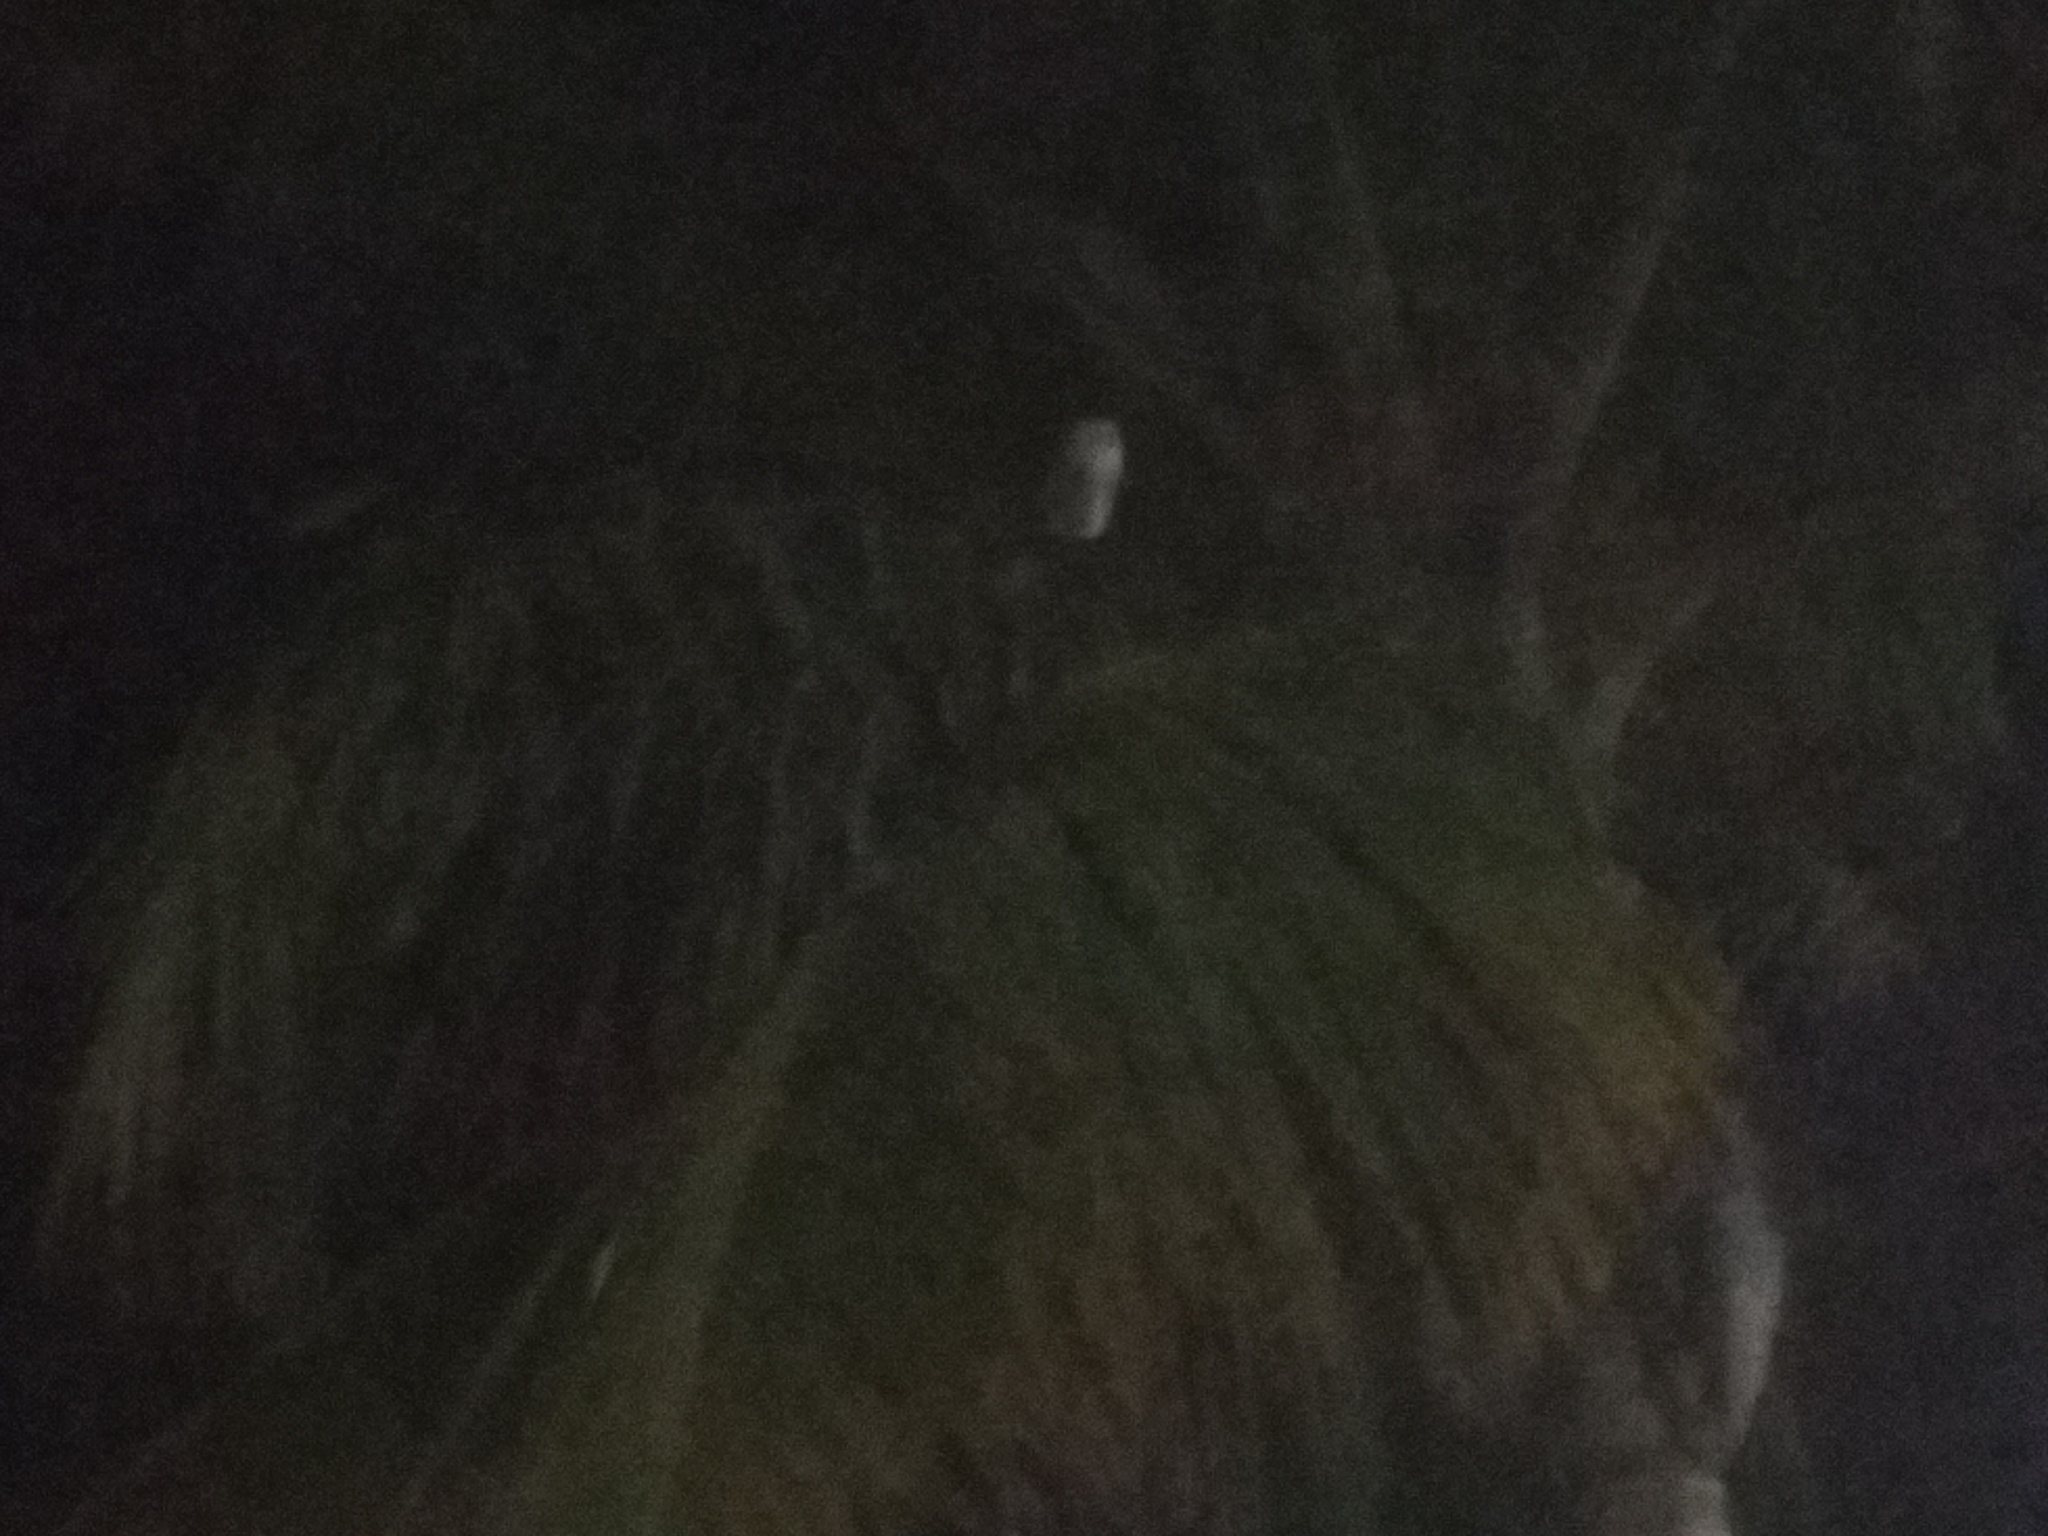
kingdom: Animalia
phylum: Chordata
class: Aves
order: Strigiformes
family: Tytonidae
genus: Tyto
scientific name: Tyto alba
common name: Barn owl
